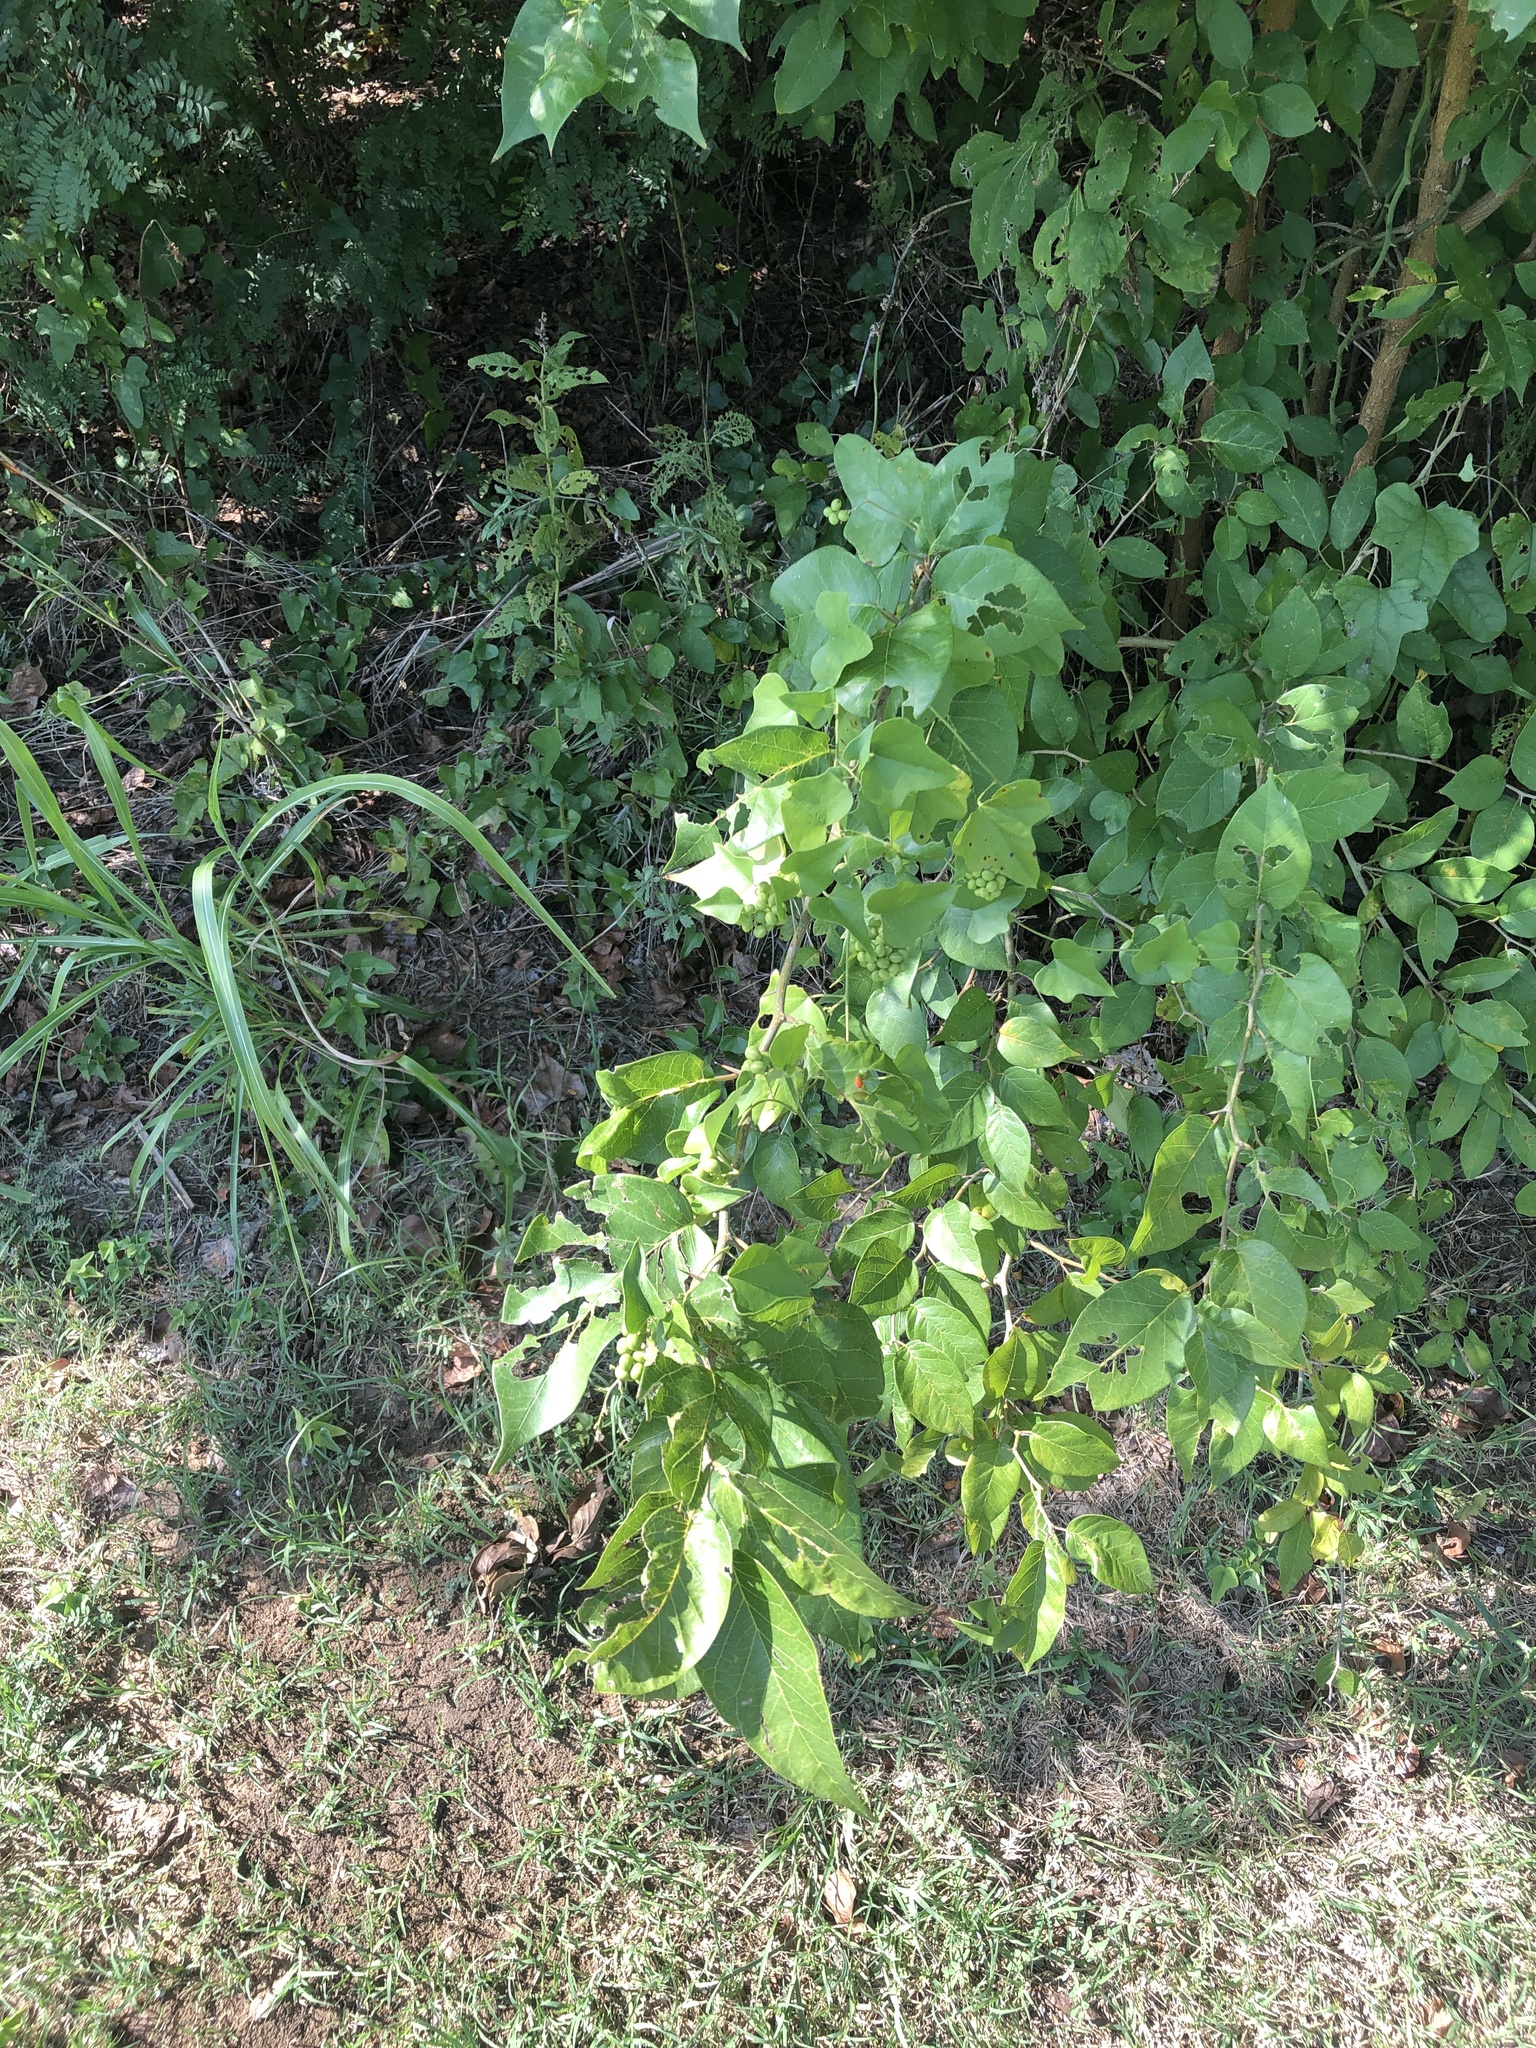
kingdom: Plantae
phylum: Tracheophyta
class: Magnoliopsida
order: Ranunculales
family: Menispermaceae
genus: Cocculus
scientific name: Cocculus carolinus
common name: Carolina moonseed
